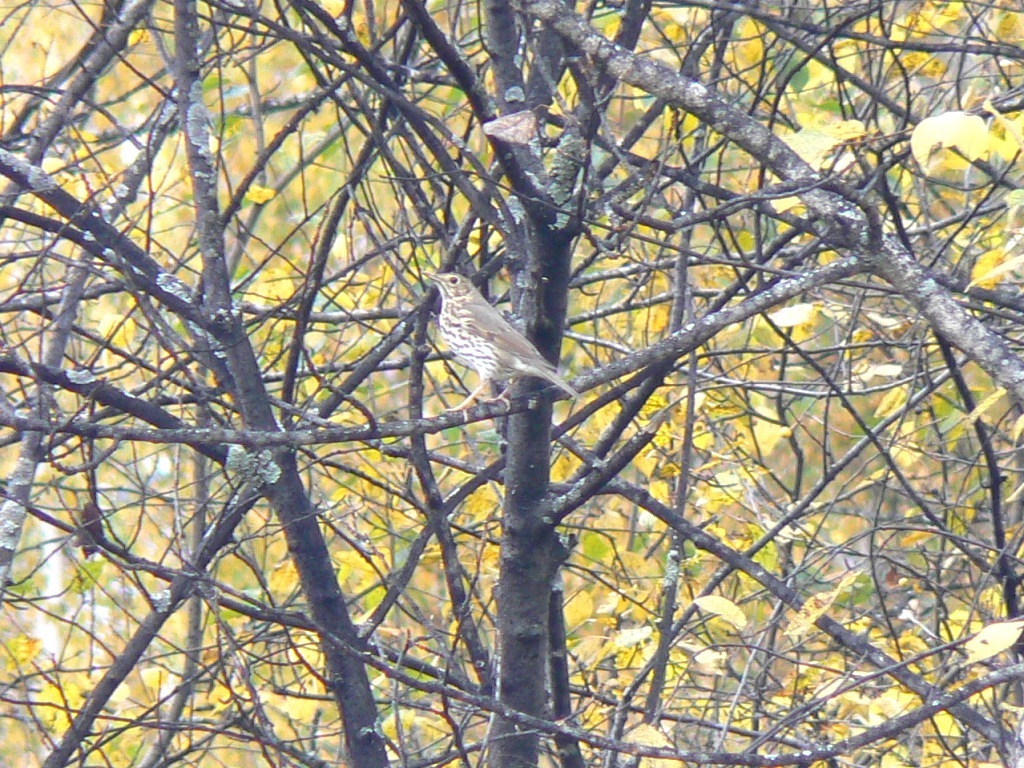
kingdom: Animalia
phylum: Chordata
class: Aves
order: Passeriformes
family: Turdidae
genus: Turdus
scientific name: Turdus philomelos
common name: Song thrush
